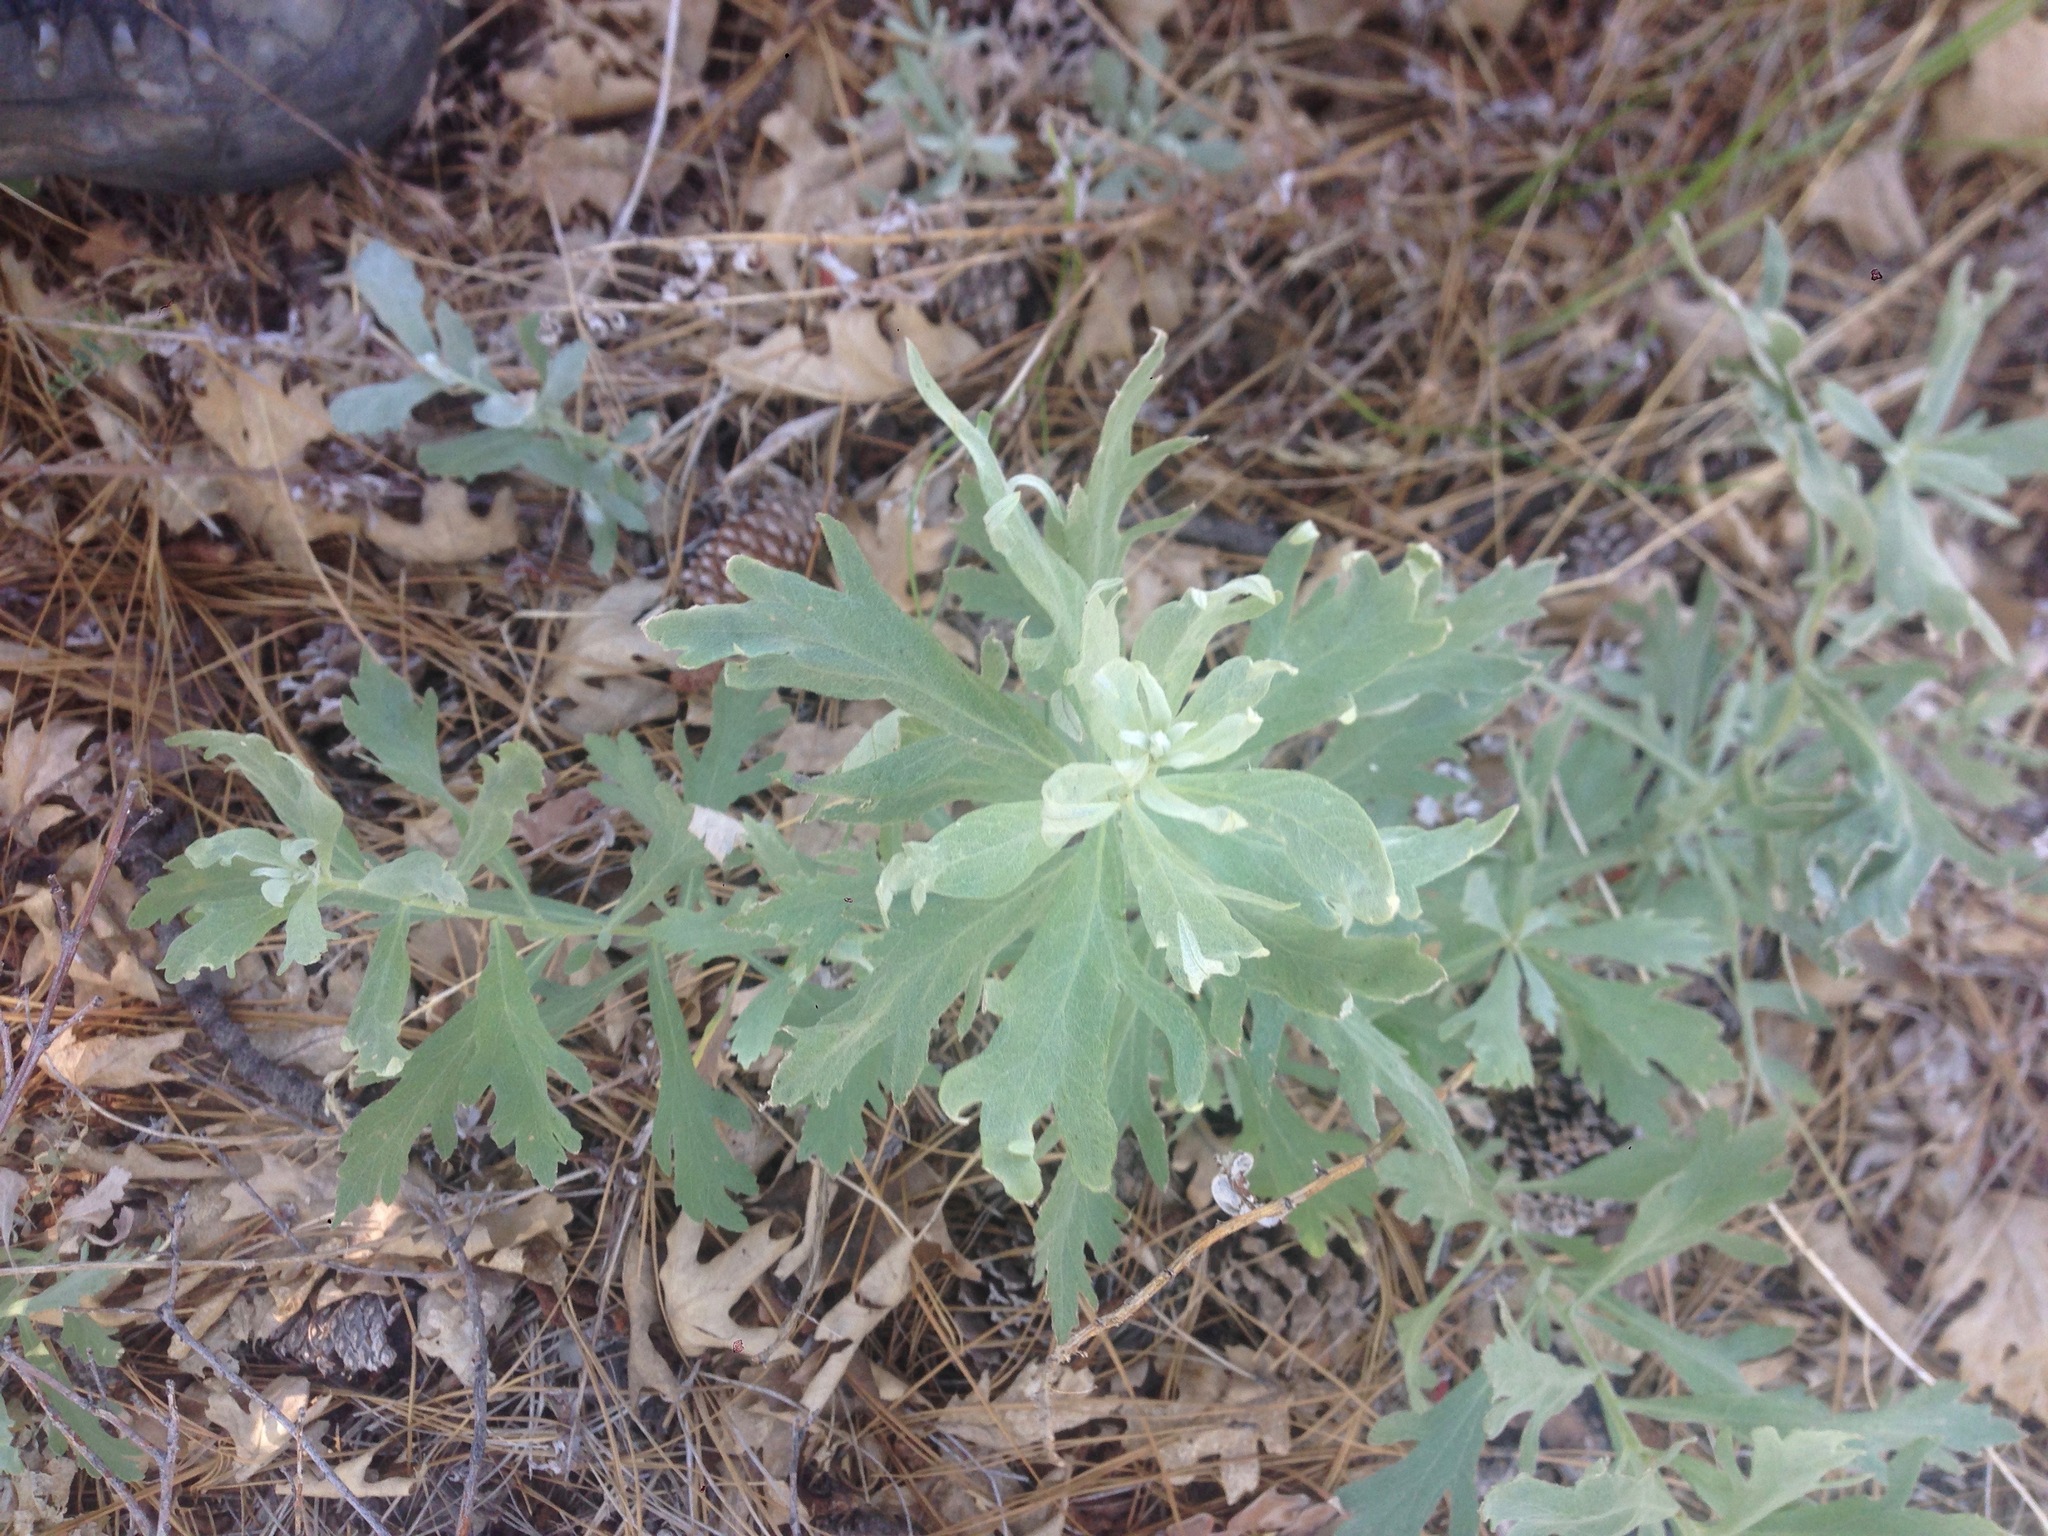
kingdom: Plantae
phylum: Tracheophyta
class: Magnoliopsida
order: Asterales
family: Asteraceae
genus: Artemisia
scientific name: Artemisia ludoviciana
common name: Western mugwort
